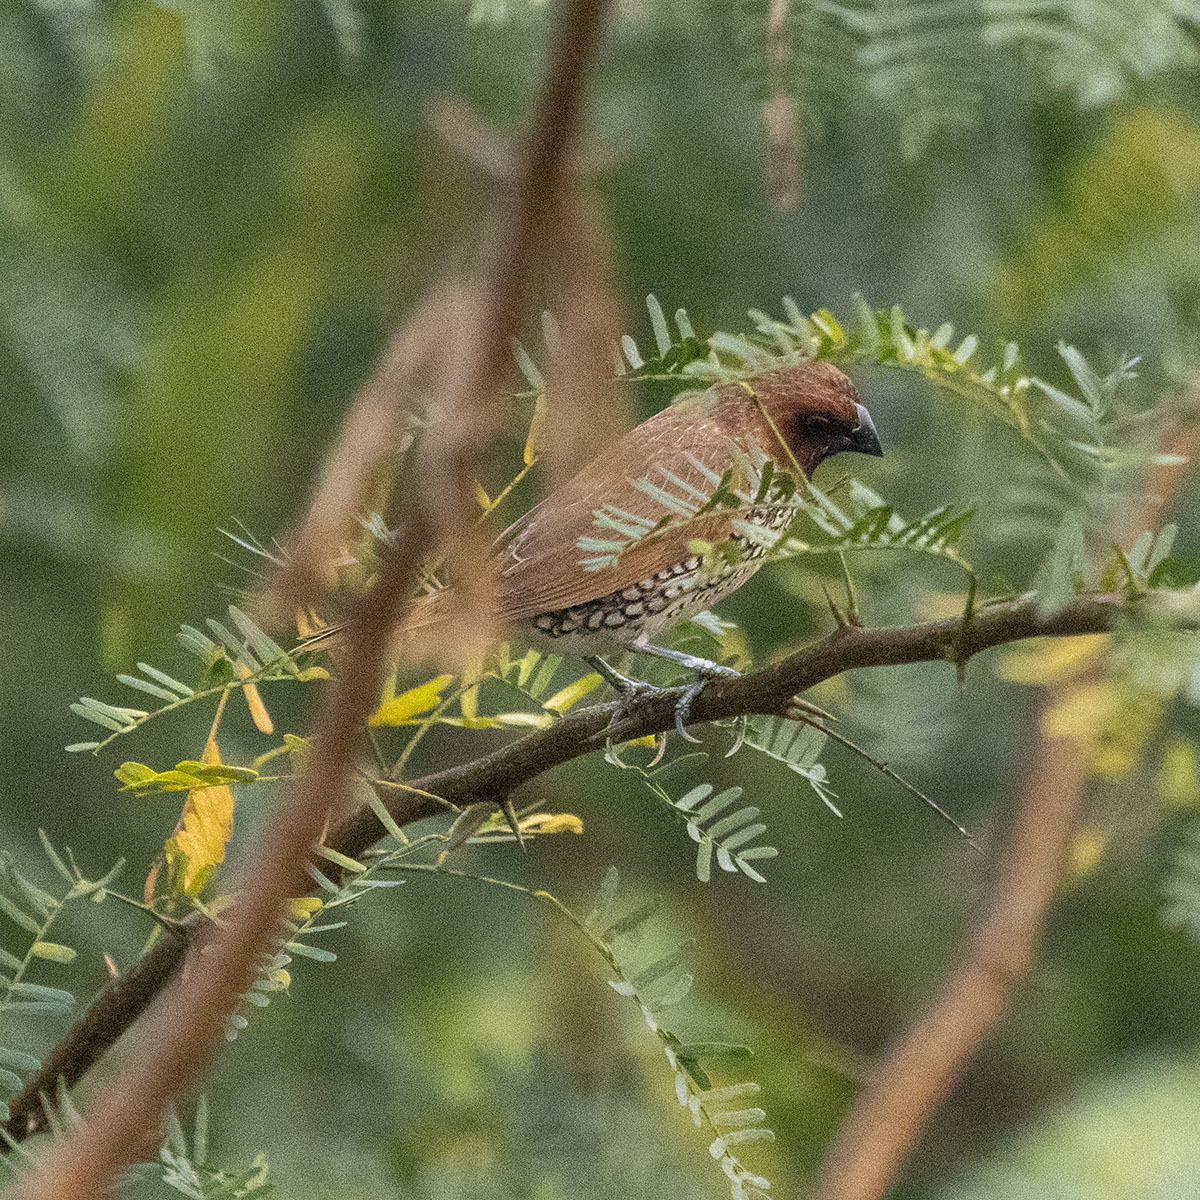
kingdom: Animalia
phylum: Chordata
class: Aves
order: Passeriformes
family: Estrildidae
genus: Lonchura
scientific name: Lonchura punctulata
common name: Scaly-breasted munia
